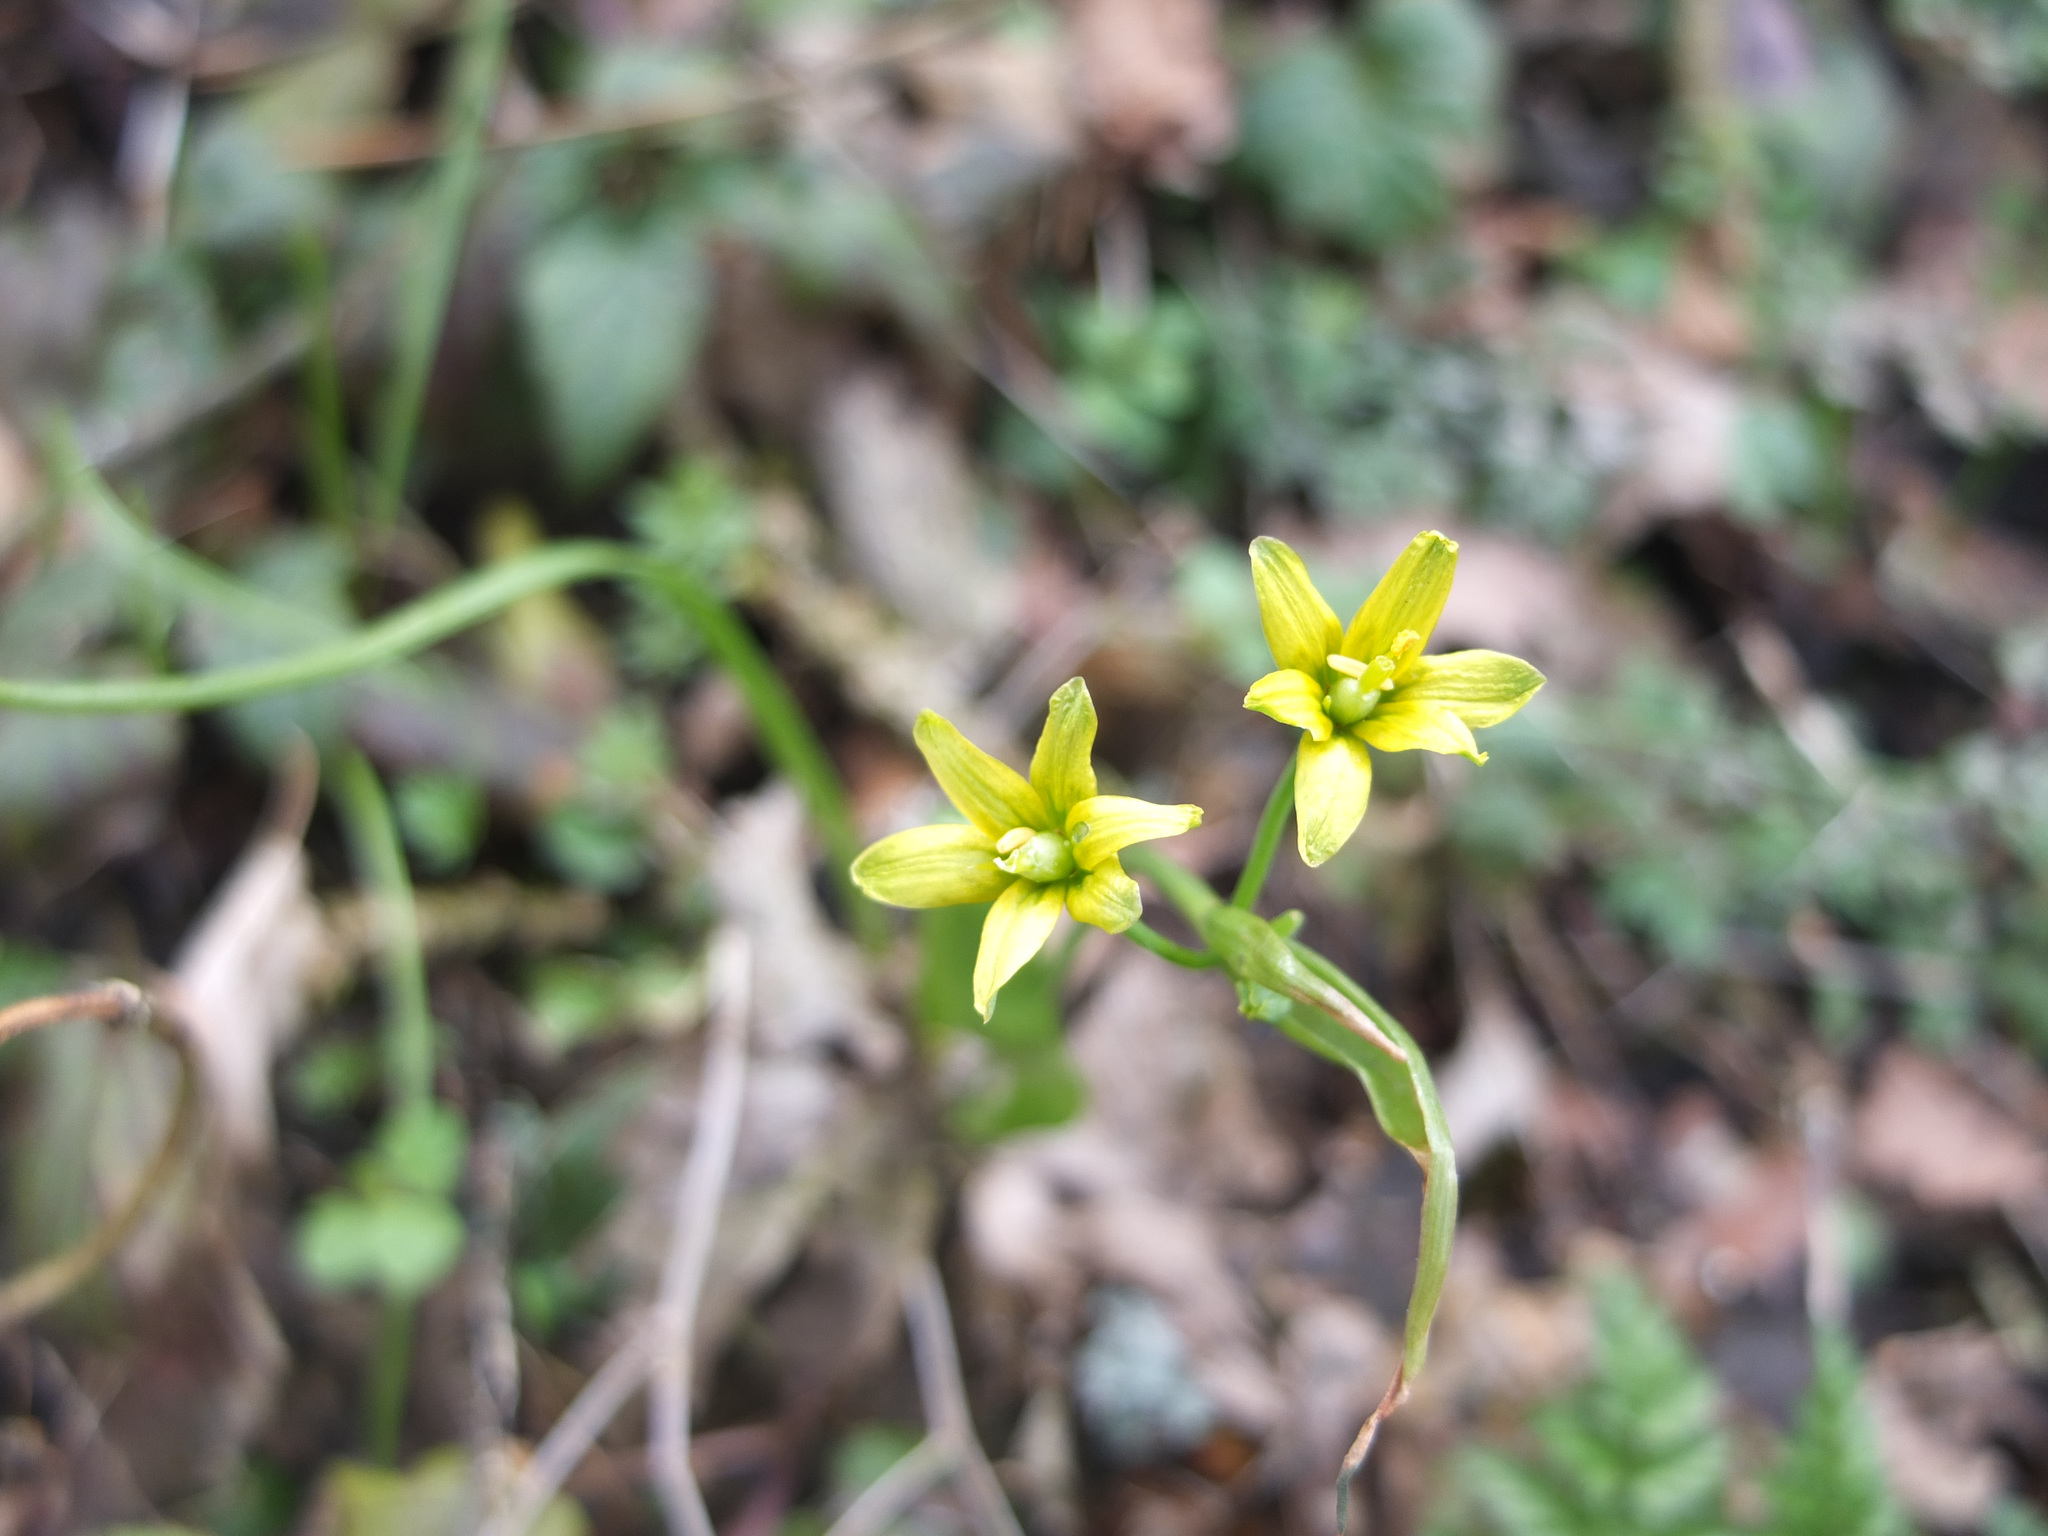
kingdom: Plantae
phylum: Tracheophyta
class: Liliopsida
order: Liliales
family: Liliaceae
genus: Gagea
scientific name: Gagea lutea
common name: Yellow star-of-bethlehem
